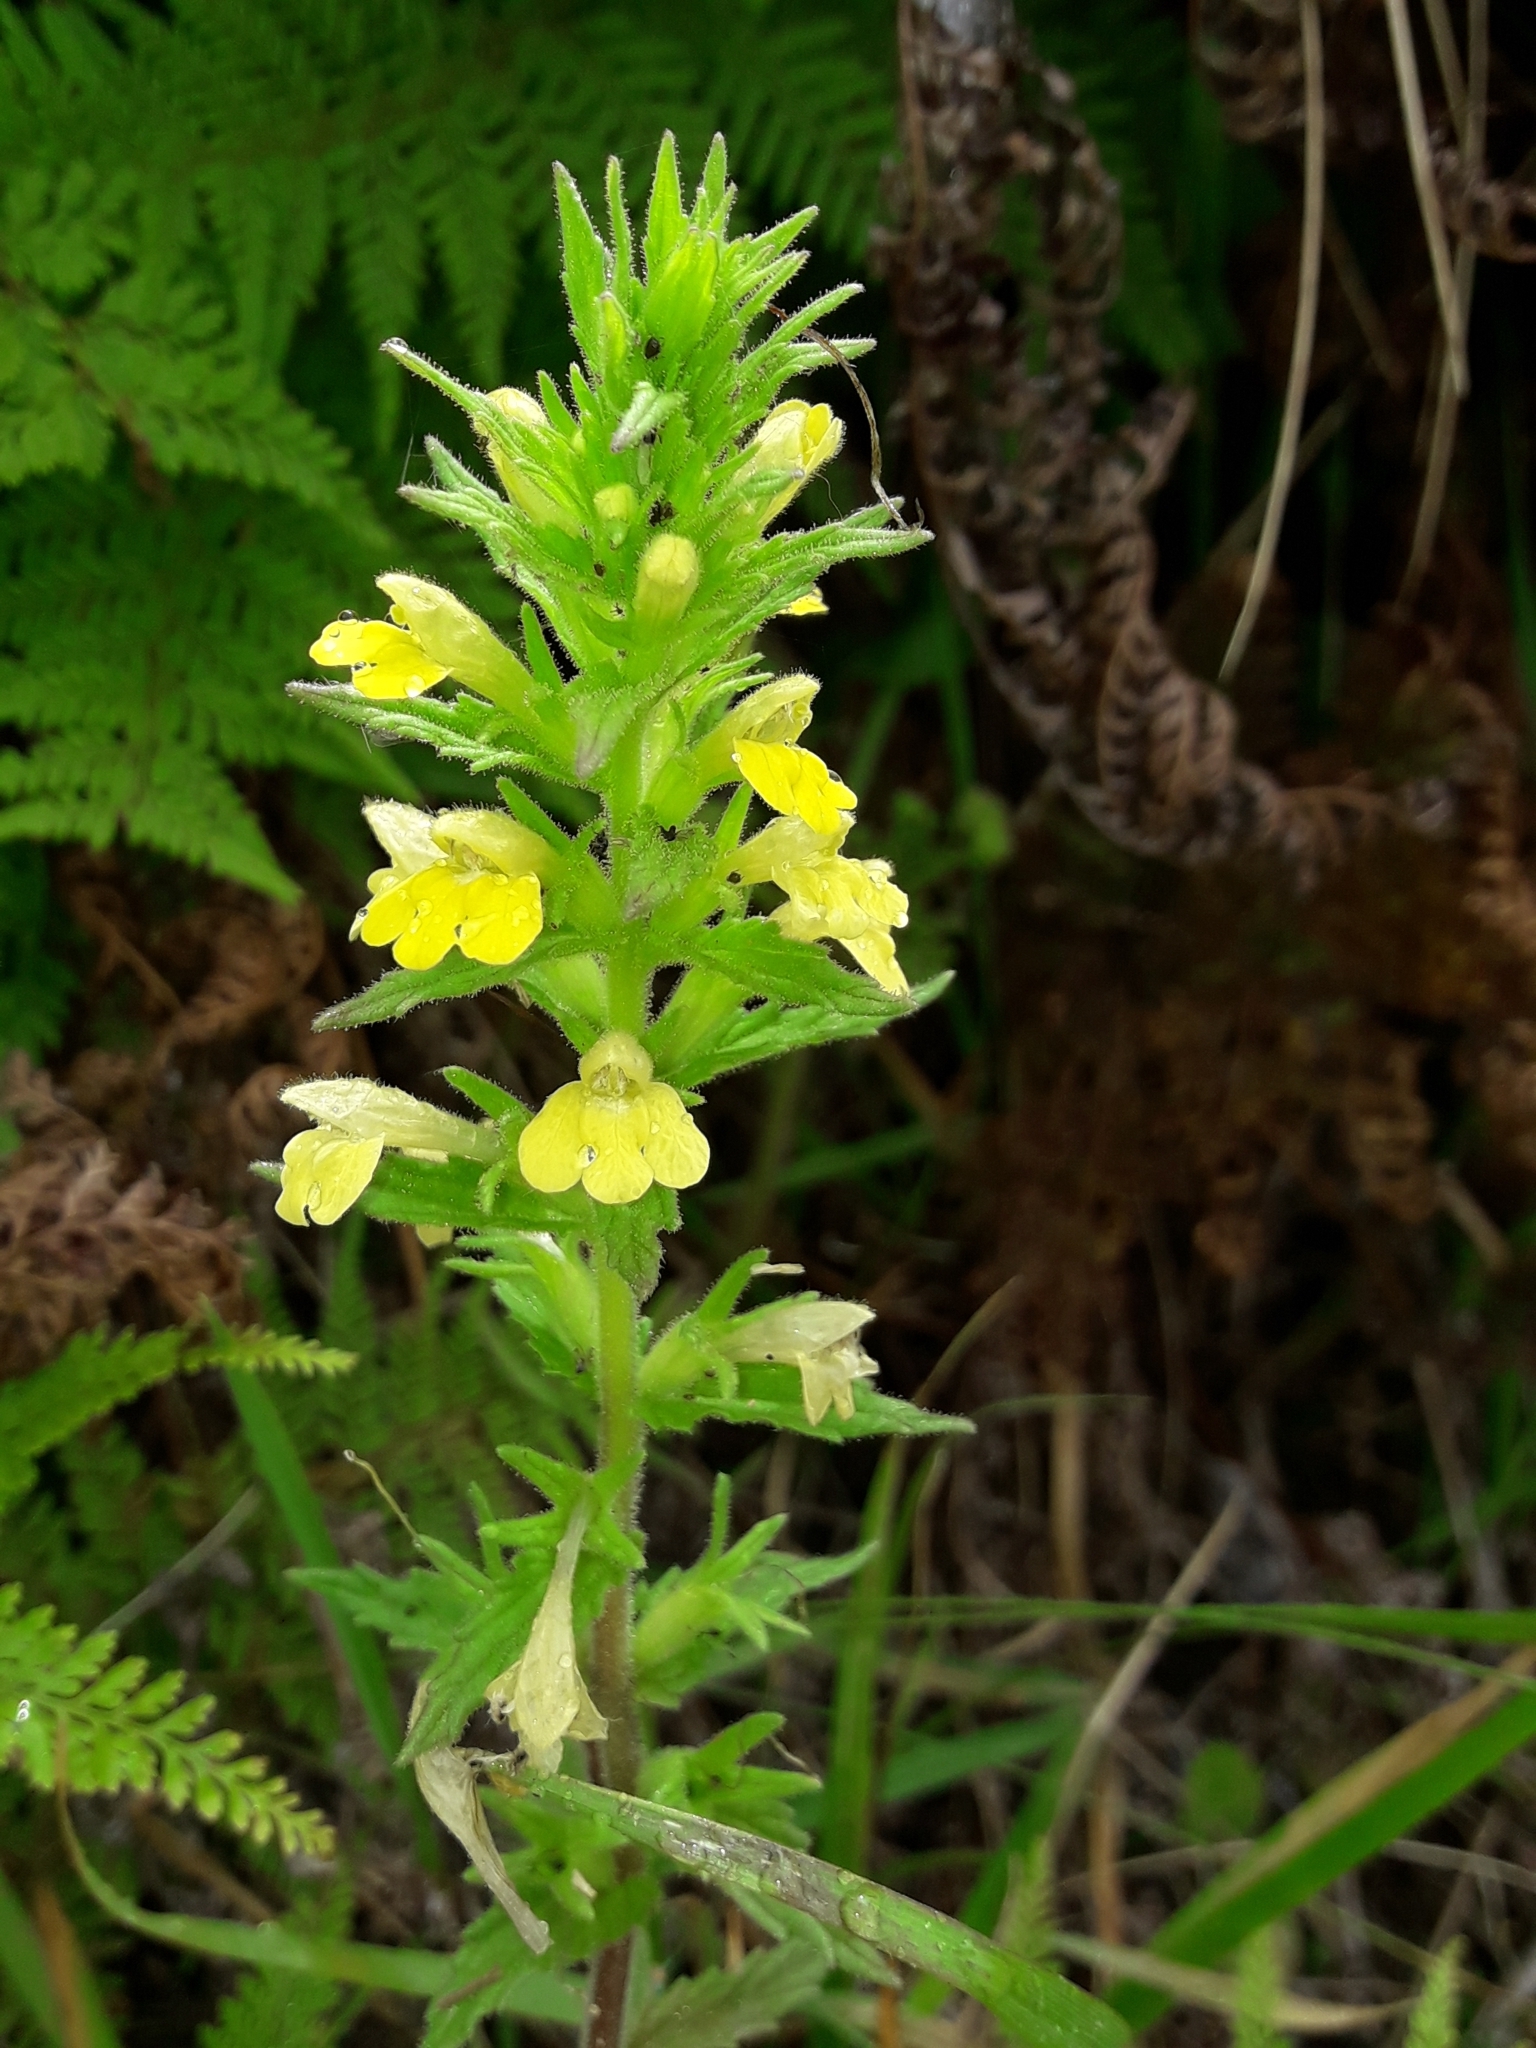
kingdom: Plantae
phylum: Tracheophyta
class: Magnoliopsida
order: Lamiales
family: Orobanchaceae
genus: Bellardia
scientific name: Bellardia viscosa
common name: Sticky parentucellia
